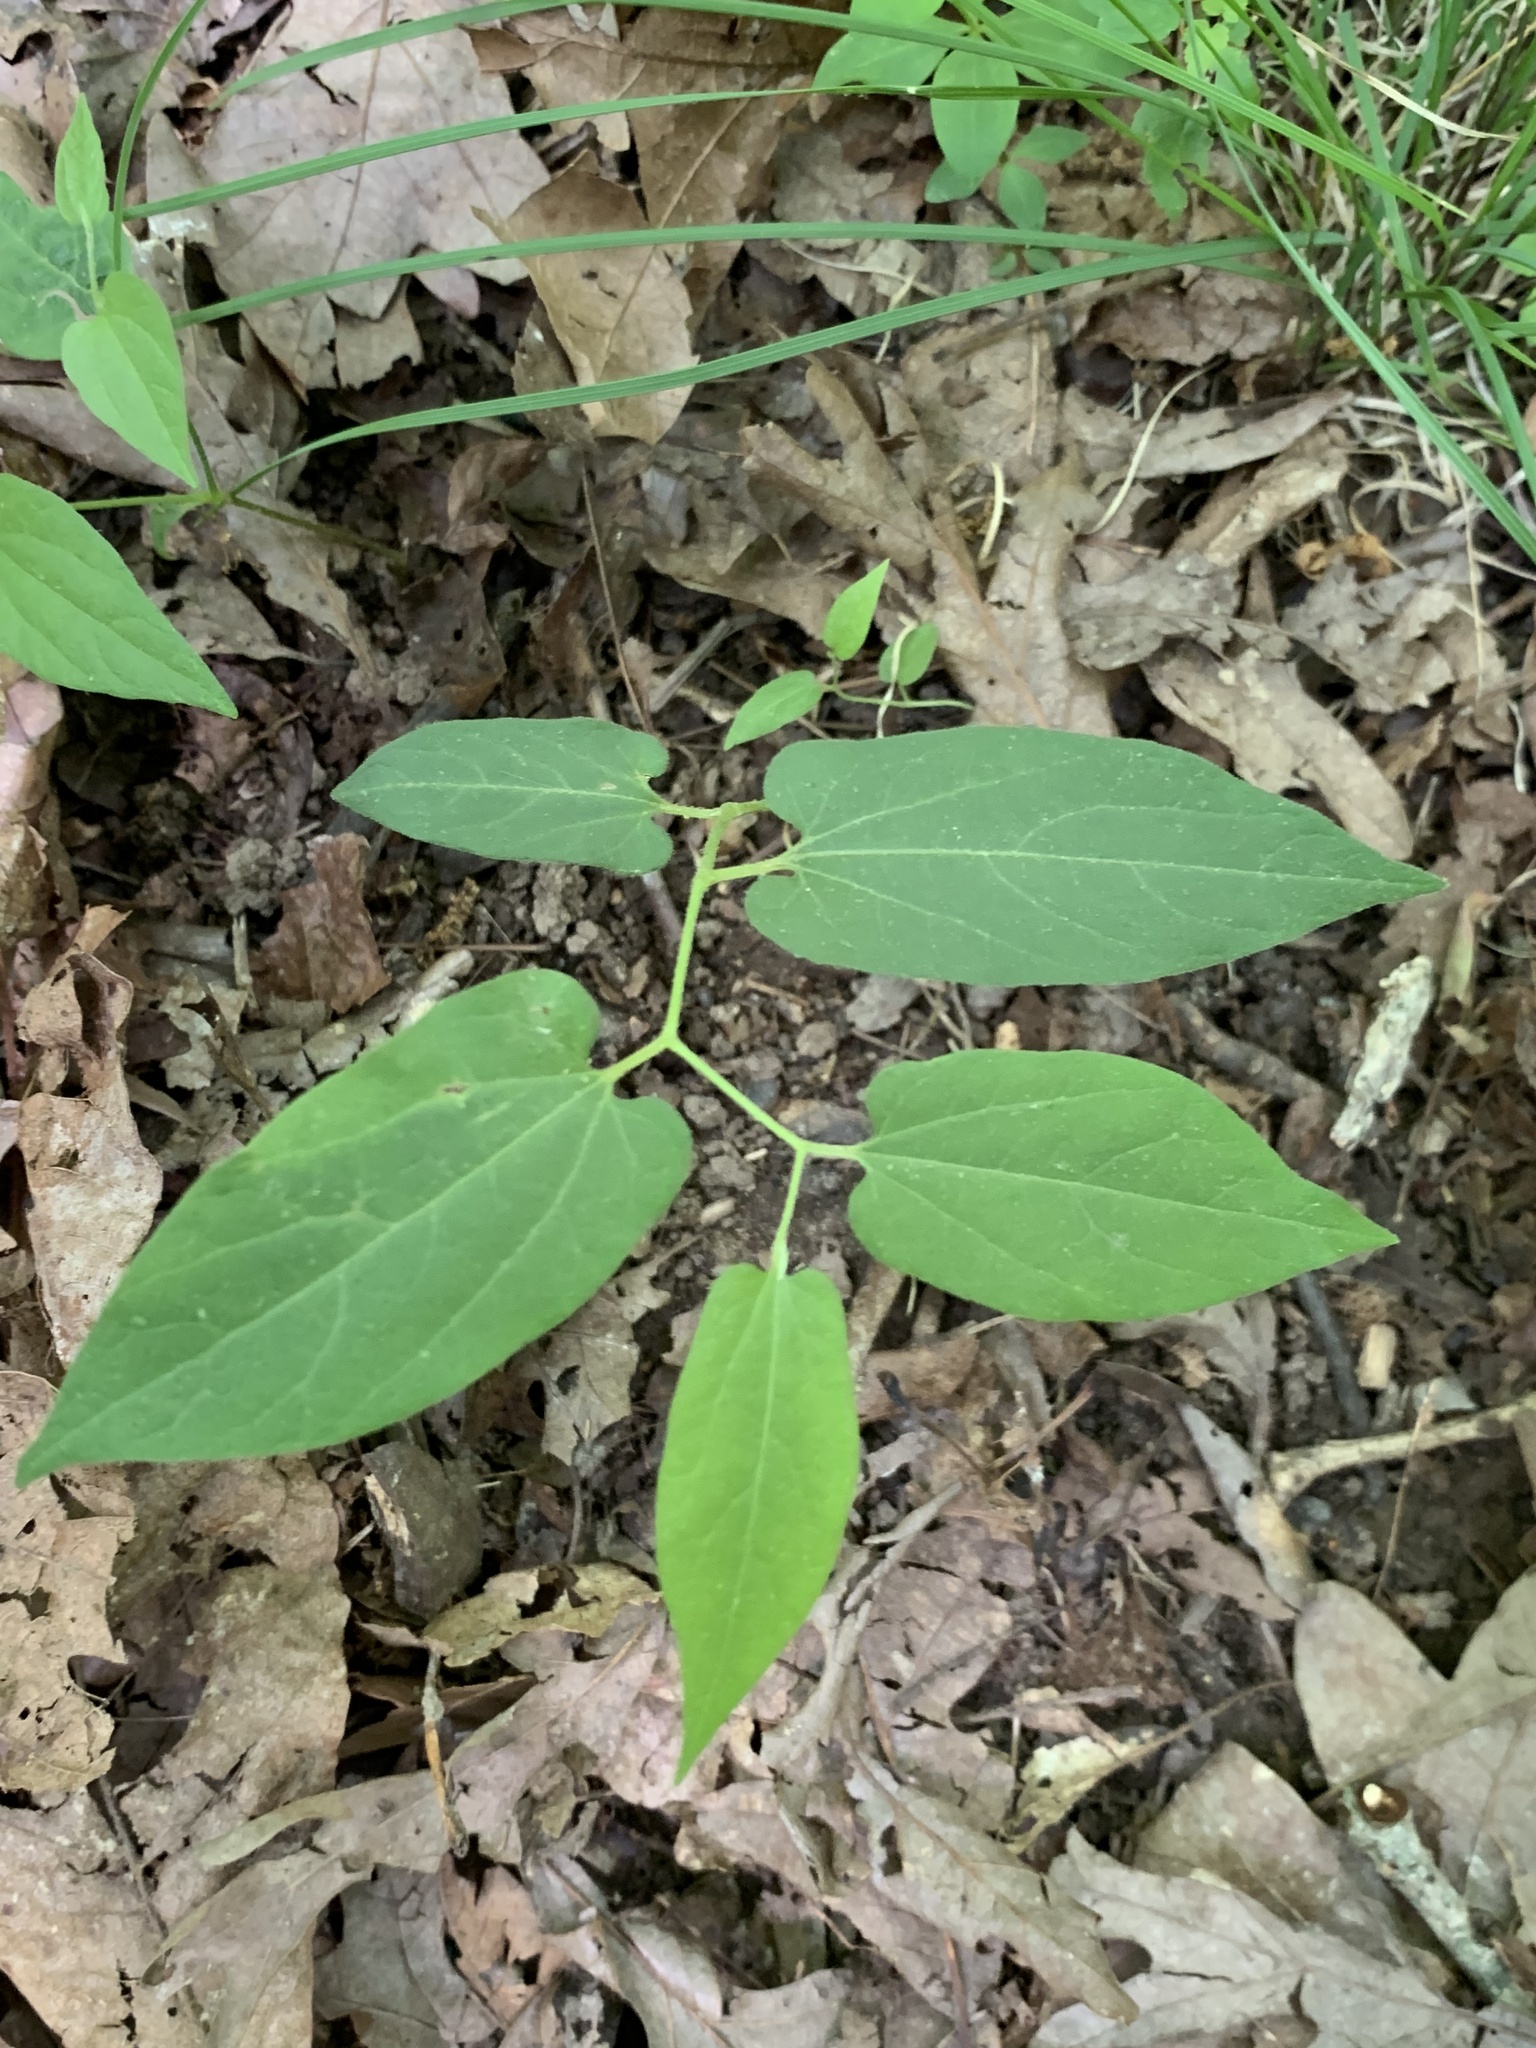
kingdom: Plantae
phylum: Tracheophyta
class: Magnoliopsida
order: Piperales
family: Aristolochiaceae
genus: Endodeca
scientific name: Endodeca serpentaria
